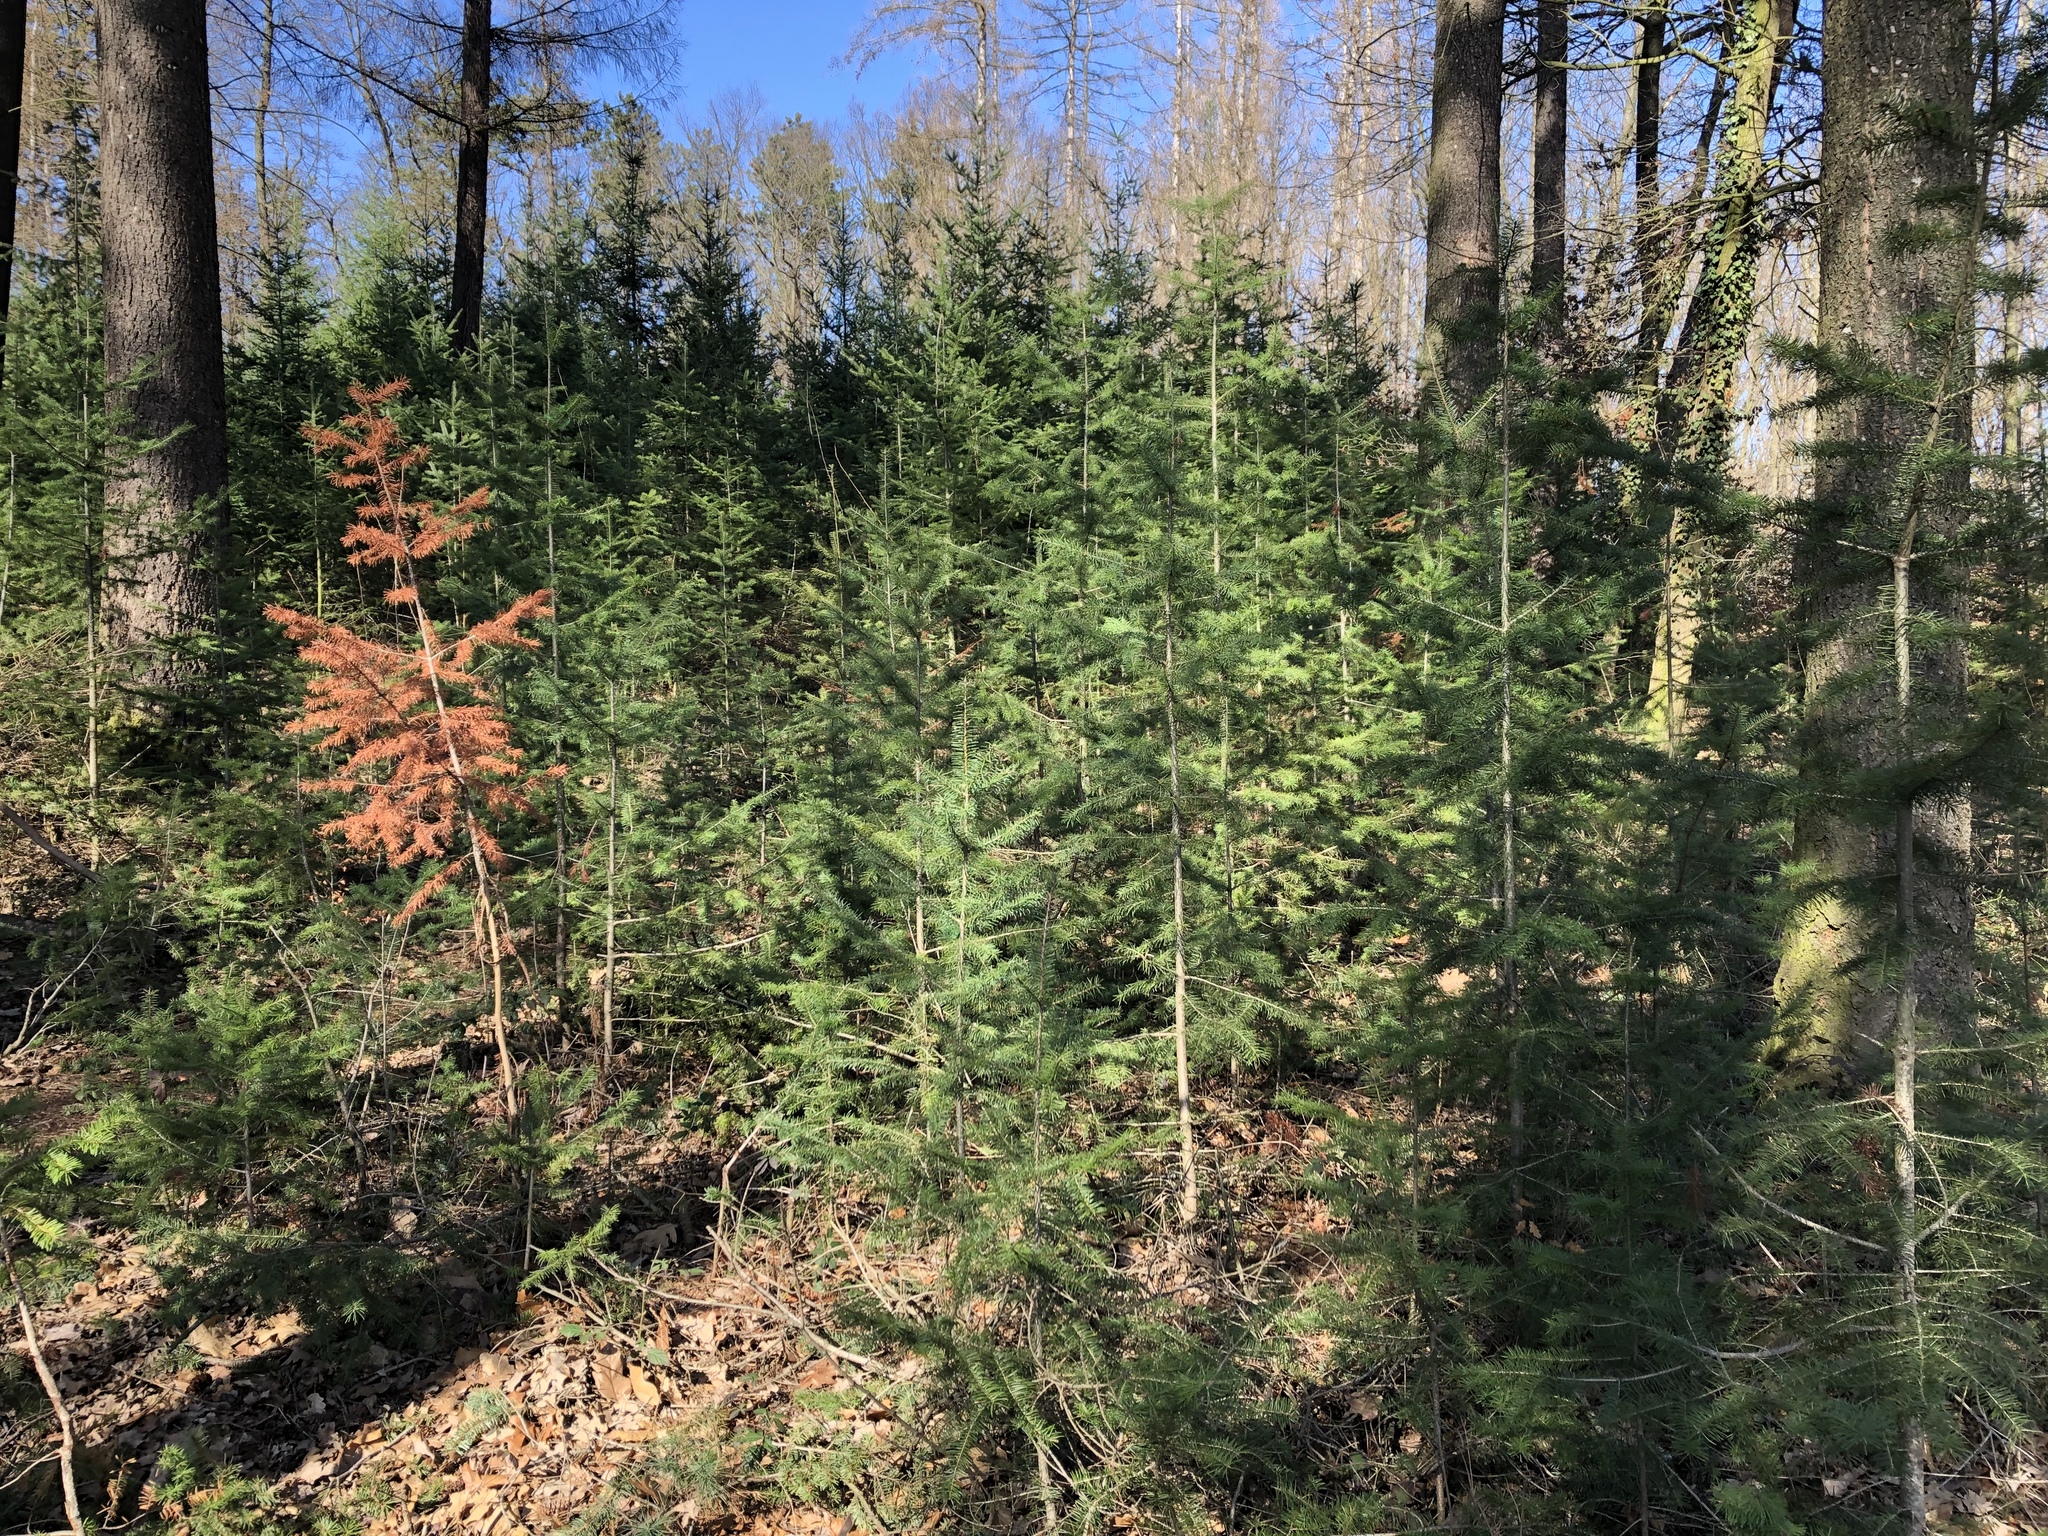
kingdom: Plantae
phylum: Tracheophyta
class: Pinopsida
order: Pinales
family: Pinaceae
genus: Pseudotsuga
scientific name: Pseudotsuga menziesii
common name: Douglas fir
